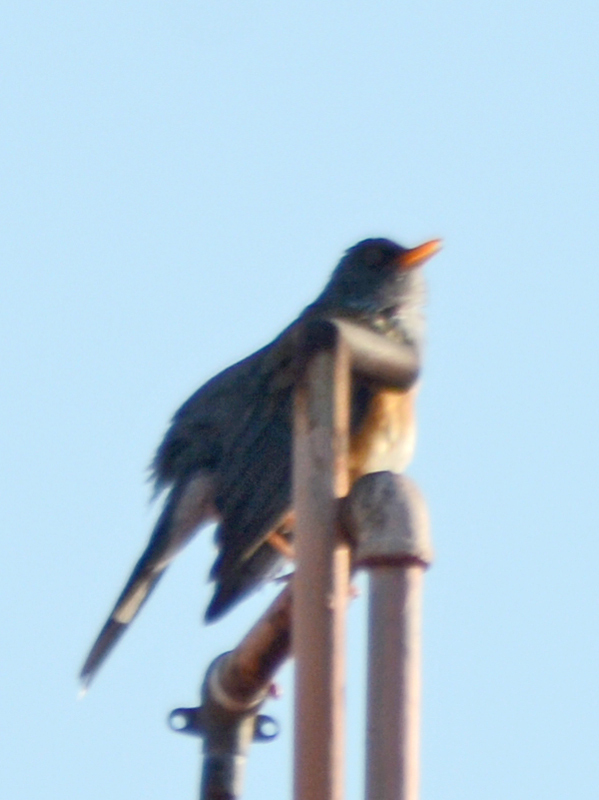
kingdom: Animalia
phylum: Chordata
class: Aves
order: Passeriformes
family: Turdidae
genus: Turdus
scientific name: Turdus rufopalliatus
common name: Rufous-backed robin
